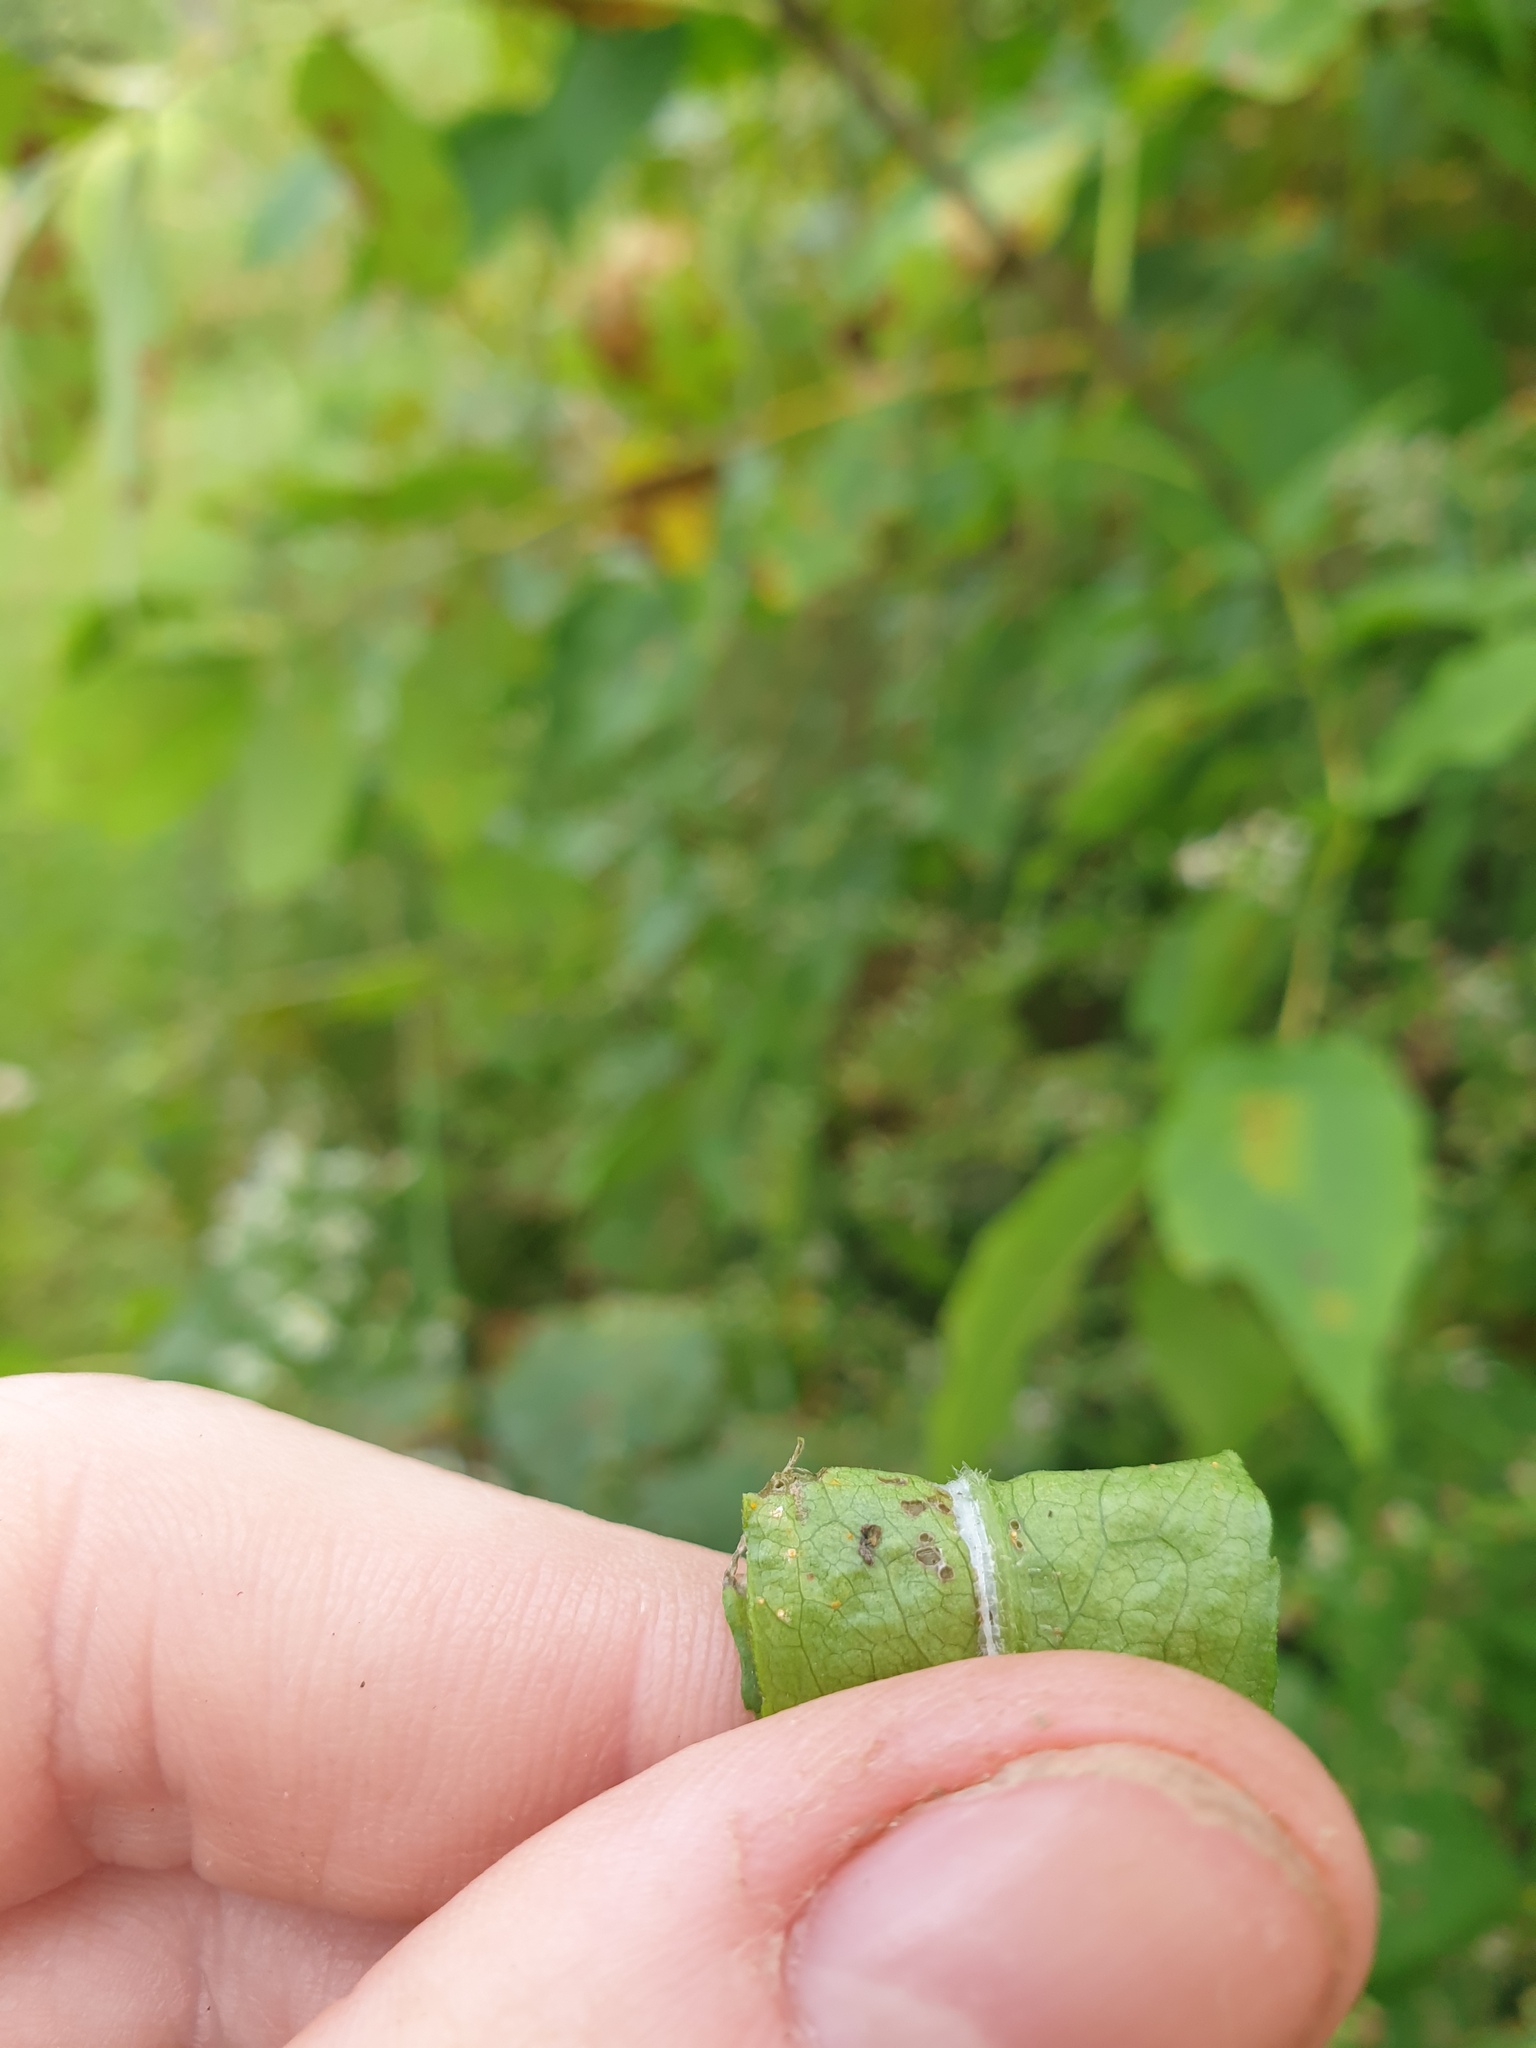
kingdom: Plantae
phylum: Tracheophyta
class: Magnoliopsida
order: Asterales
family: Asteraceae
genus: Symphyotrichum
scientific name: Symphyotrichum lateriflorum
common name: Calico aster
